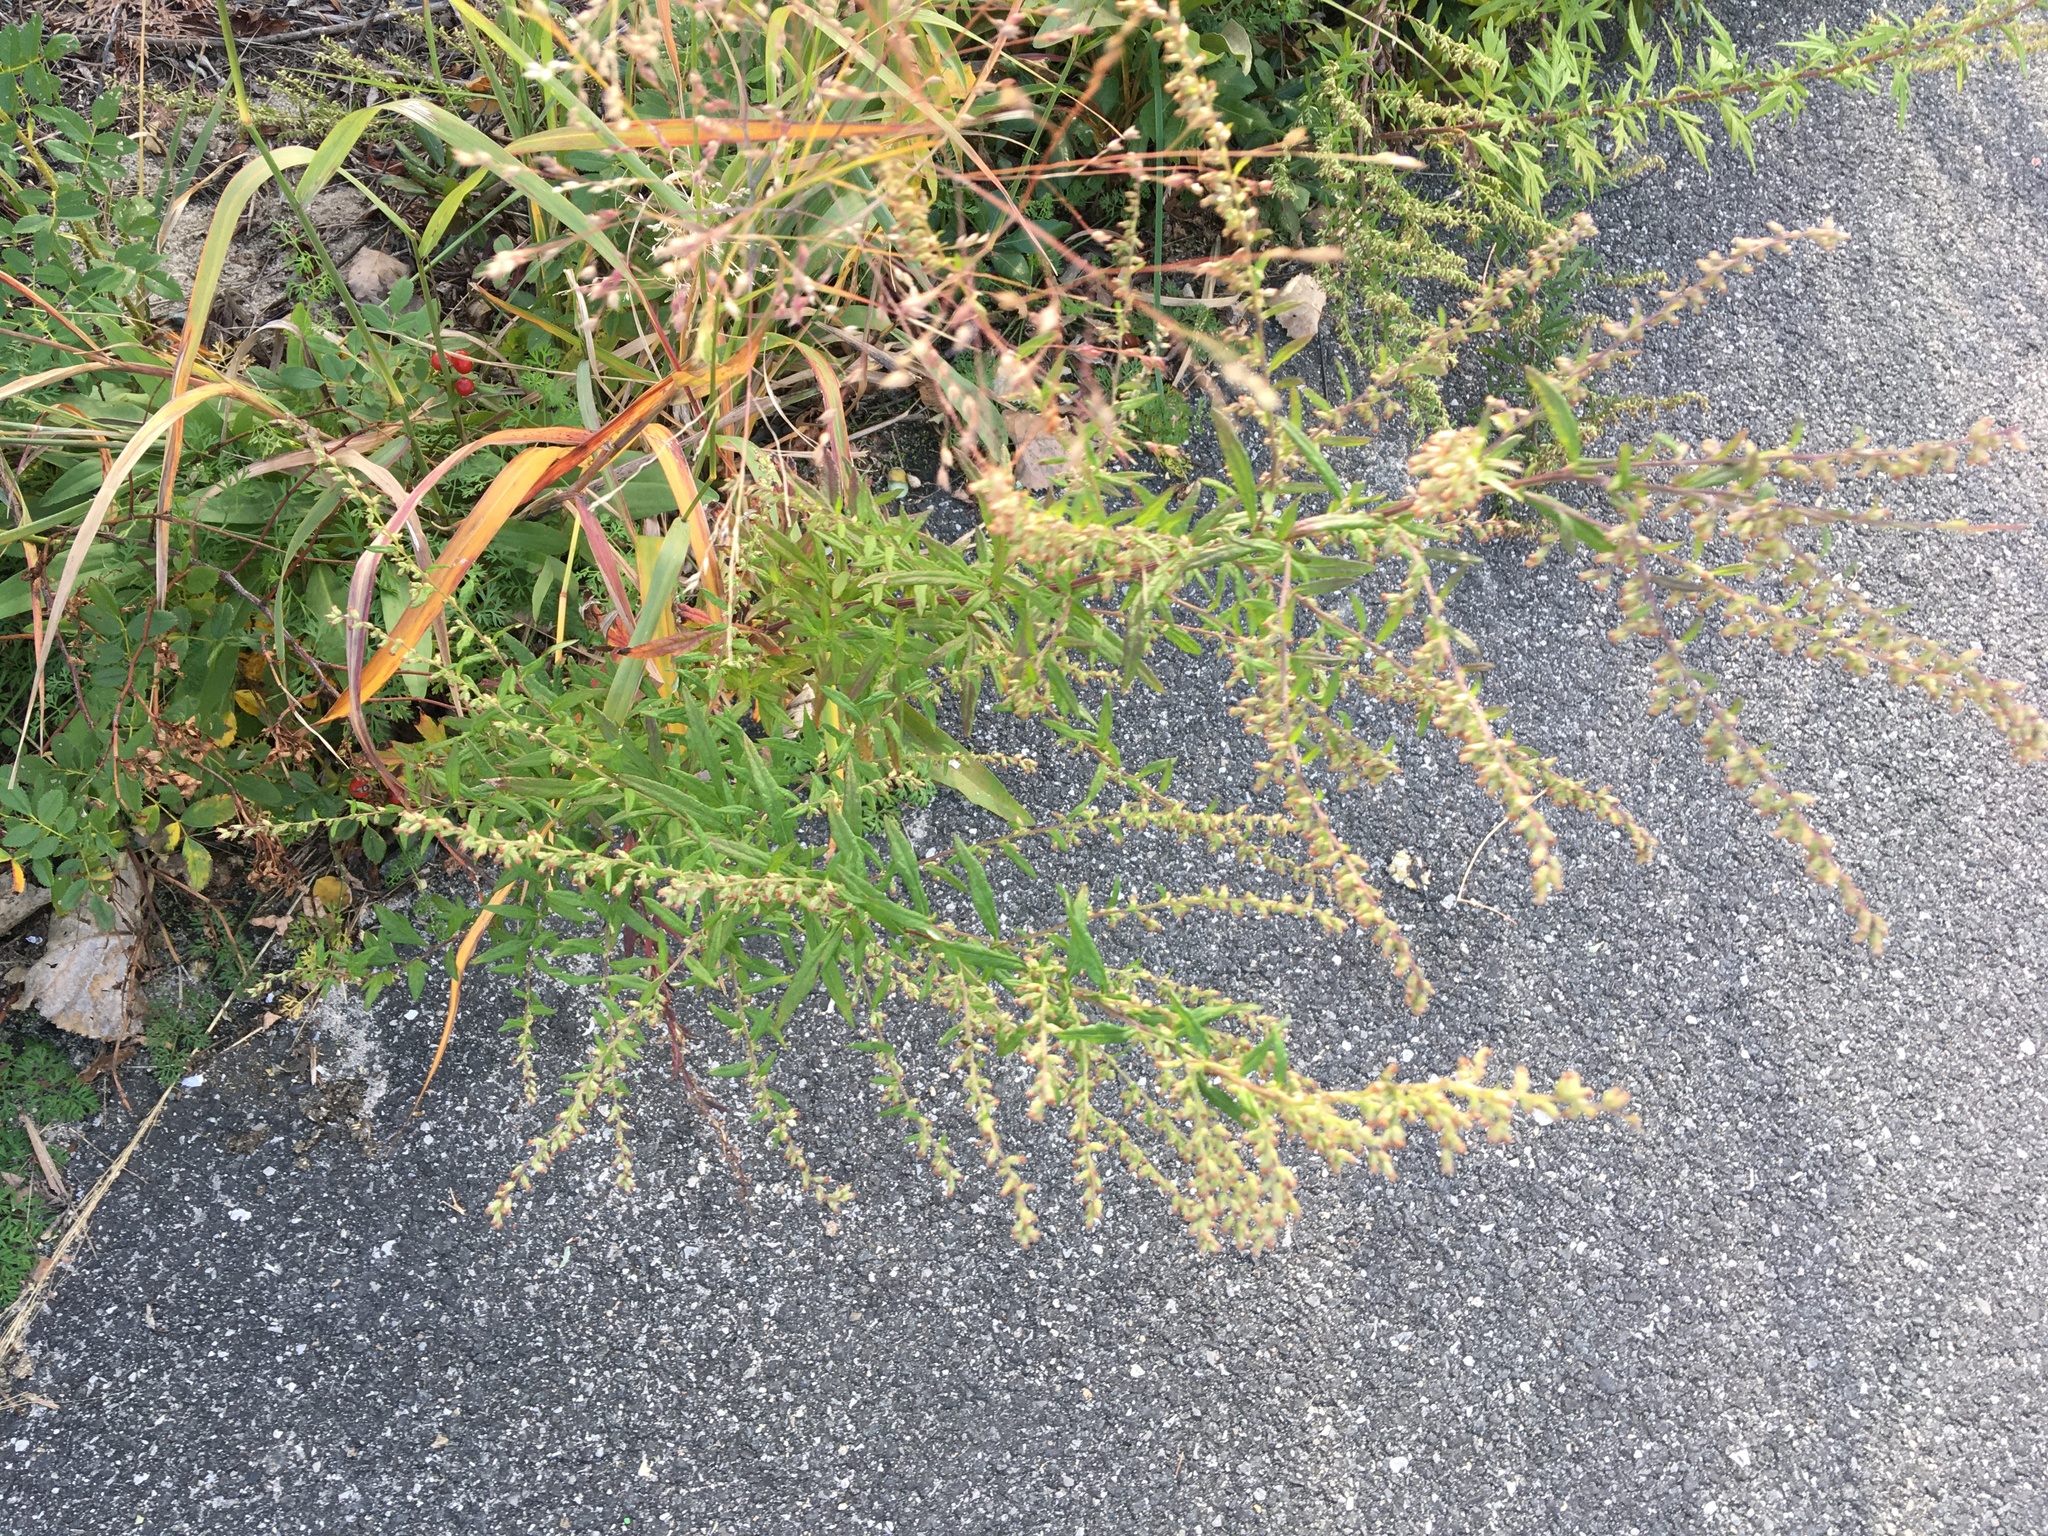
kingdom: Plantae
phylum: Tracheophyta
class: Magnoliopsida
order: Asterales
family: Asteraceae
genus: Artemisia
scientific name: Artemisia vulgaris
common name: Mugwort
